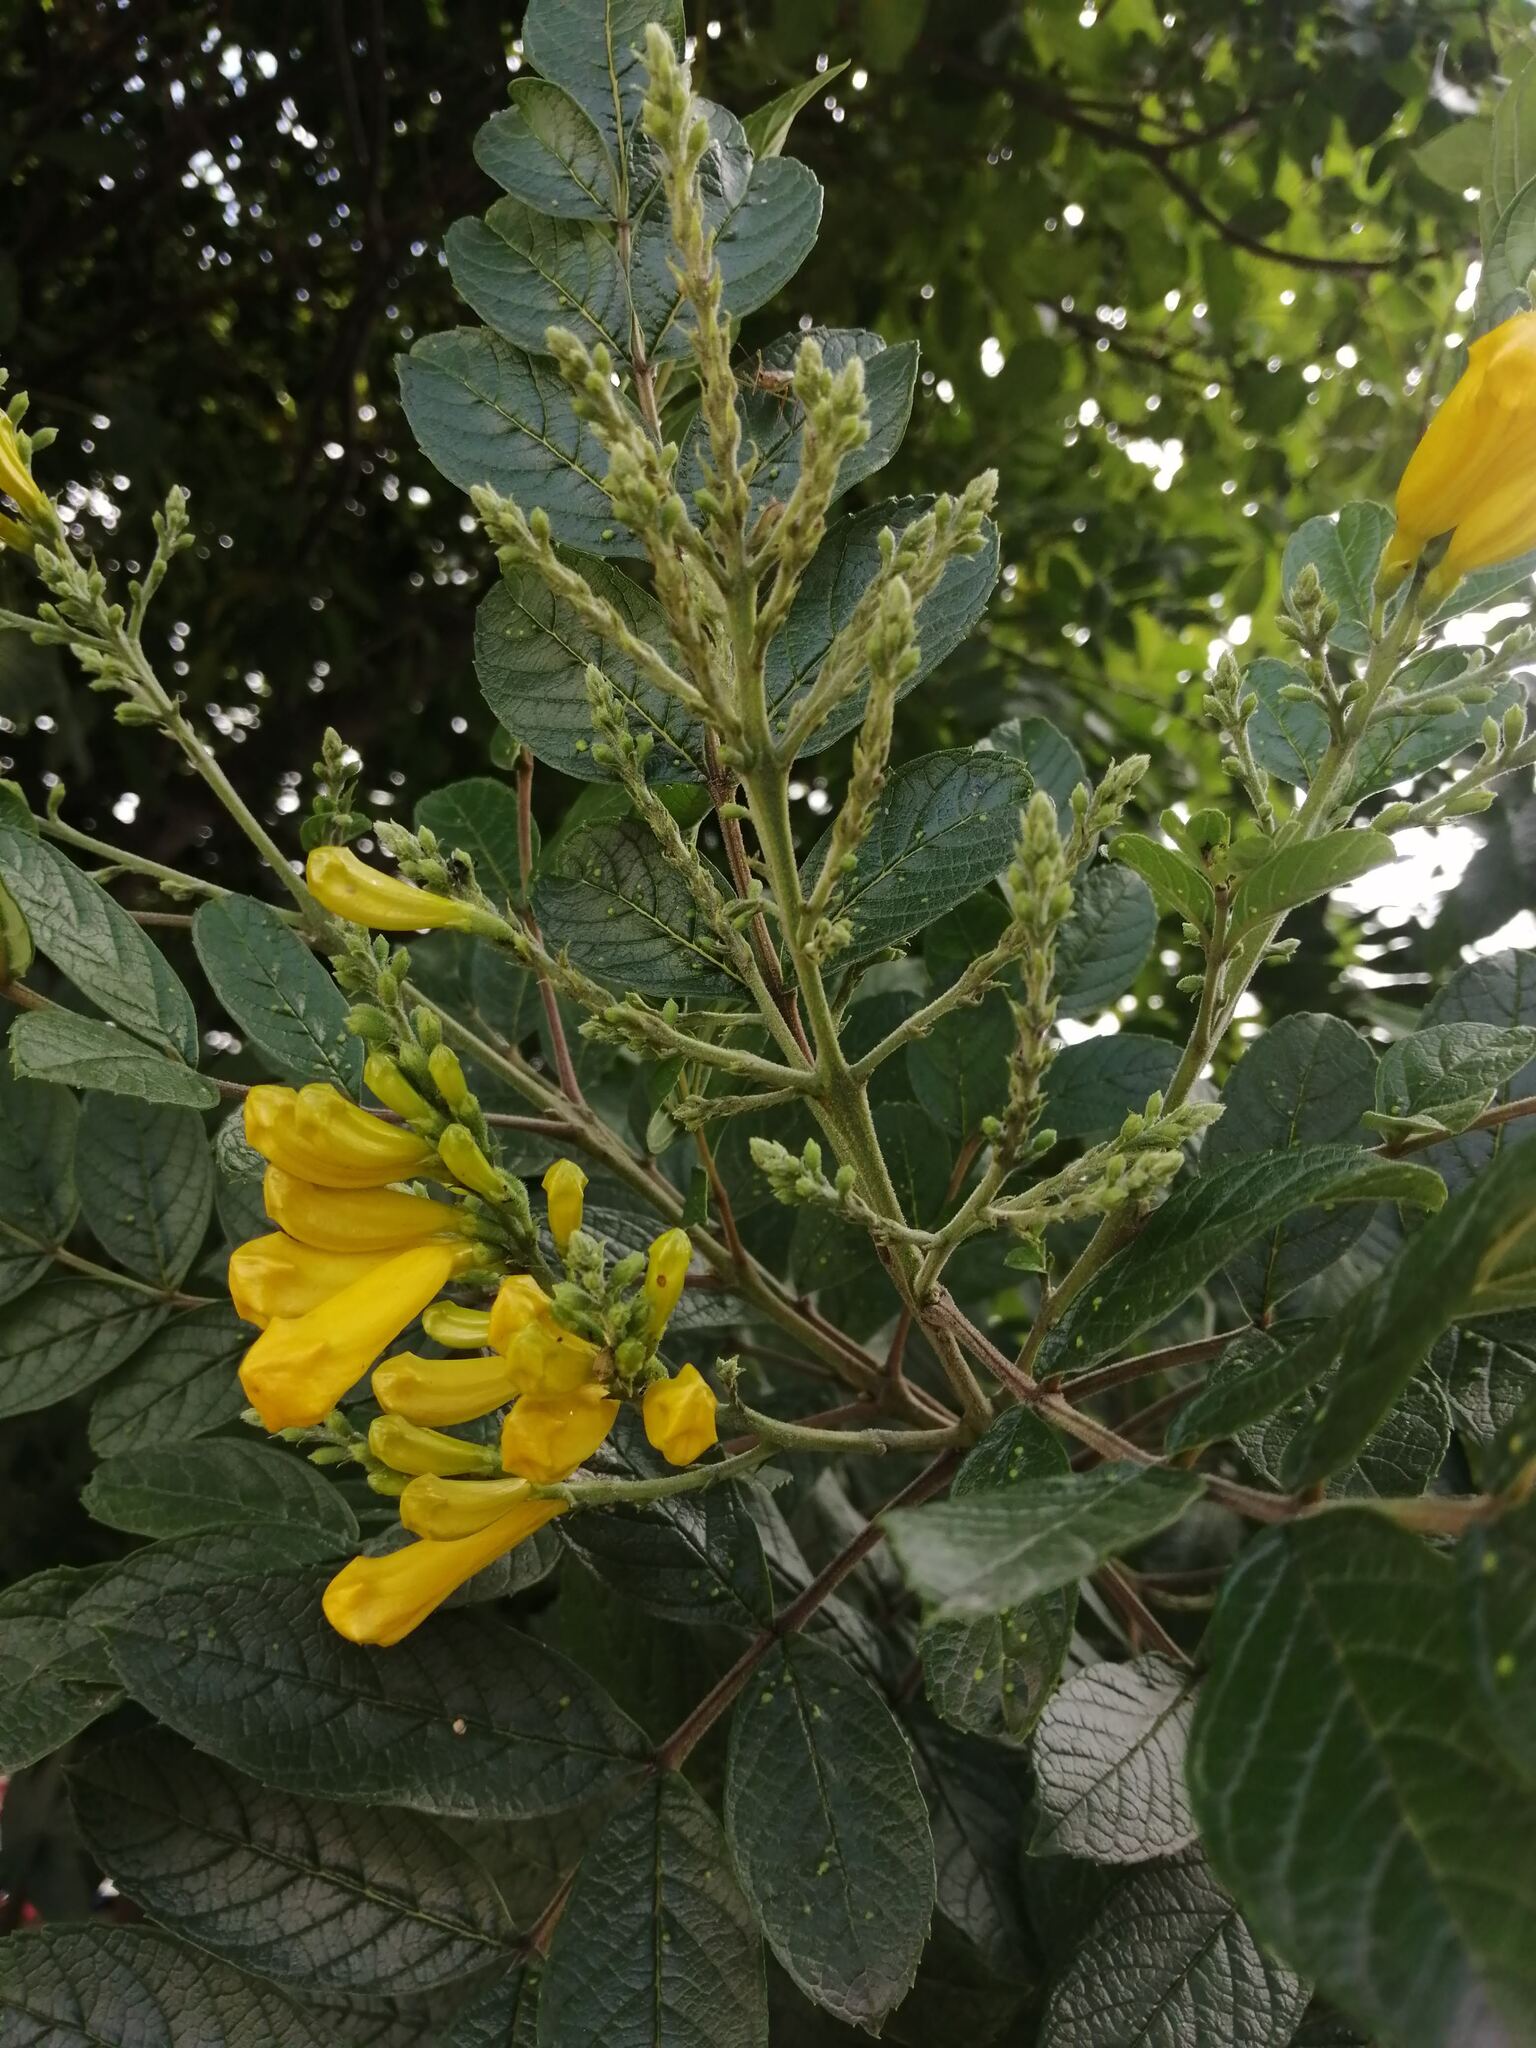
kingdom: Plantae
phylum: Tracheophyta
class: Magnoliopsida
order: Lamiales
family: Bignoniaceae
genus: Tecoma
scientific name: Tecoma stans
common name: Yellow trumpetbush
